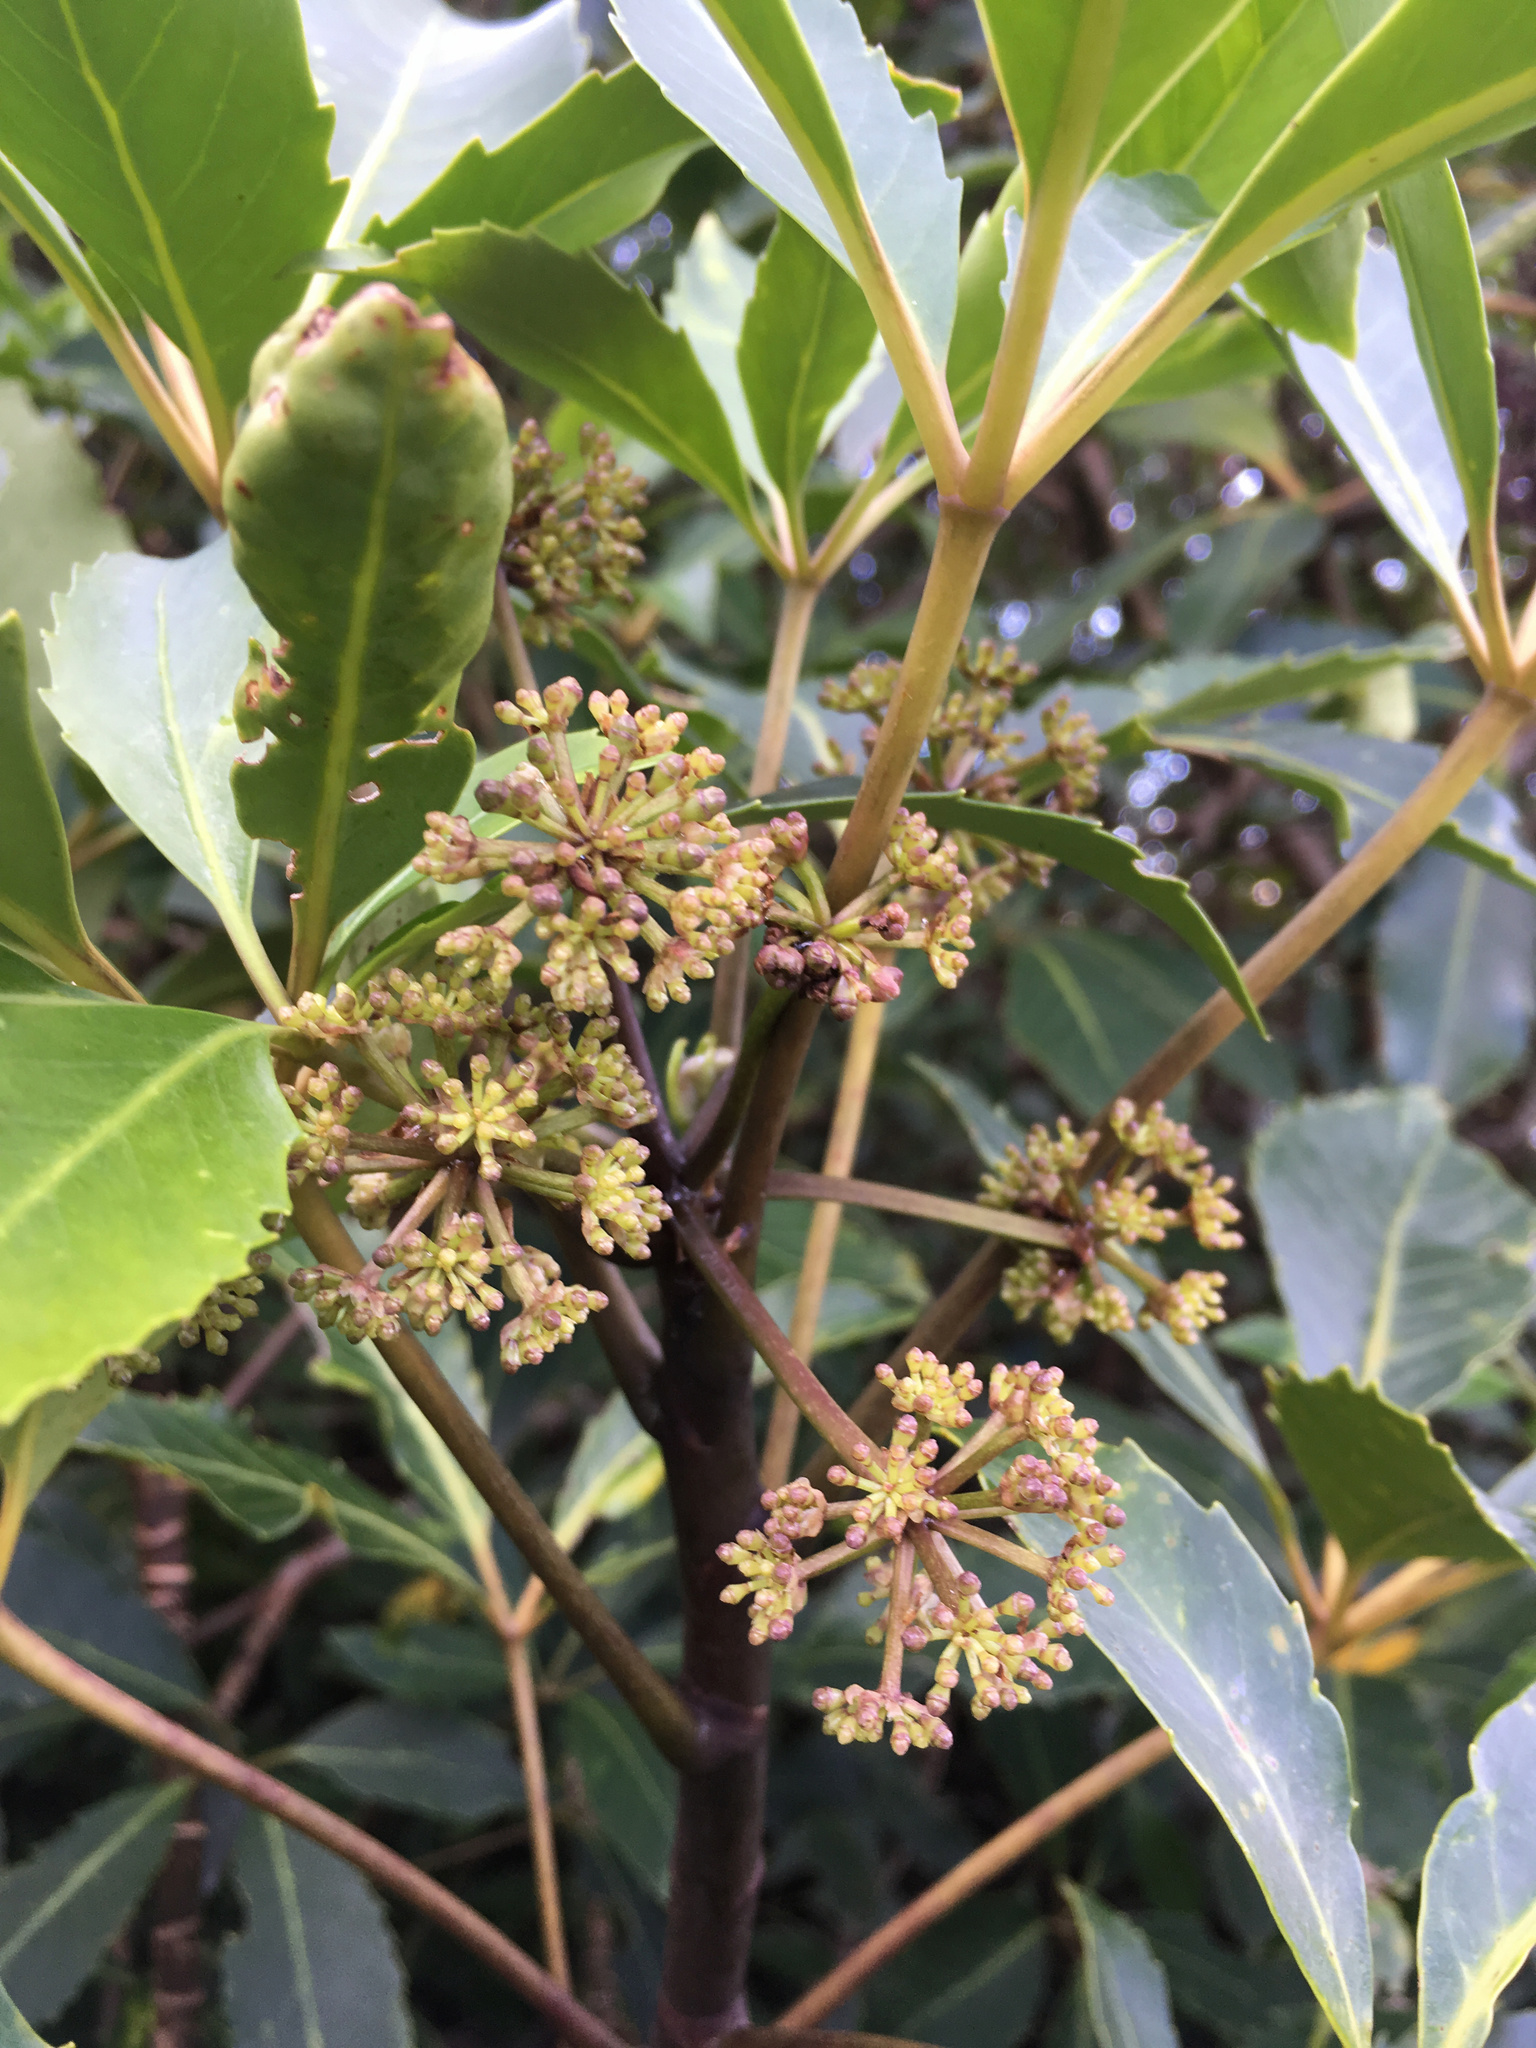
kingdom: Plantae
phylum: Tracheophyta
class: Magnoliopsida
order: Apiales
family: Araliaceae
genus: Neopanax
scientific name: Neopanax arboreus
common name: Five-fingers
